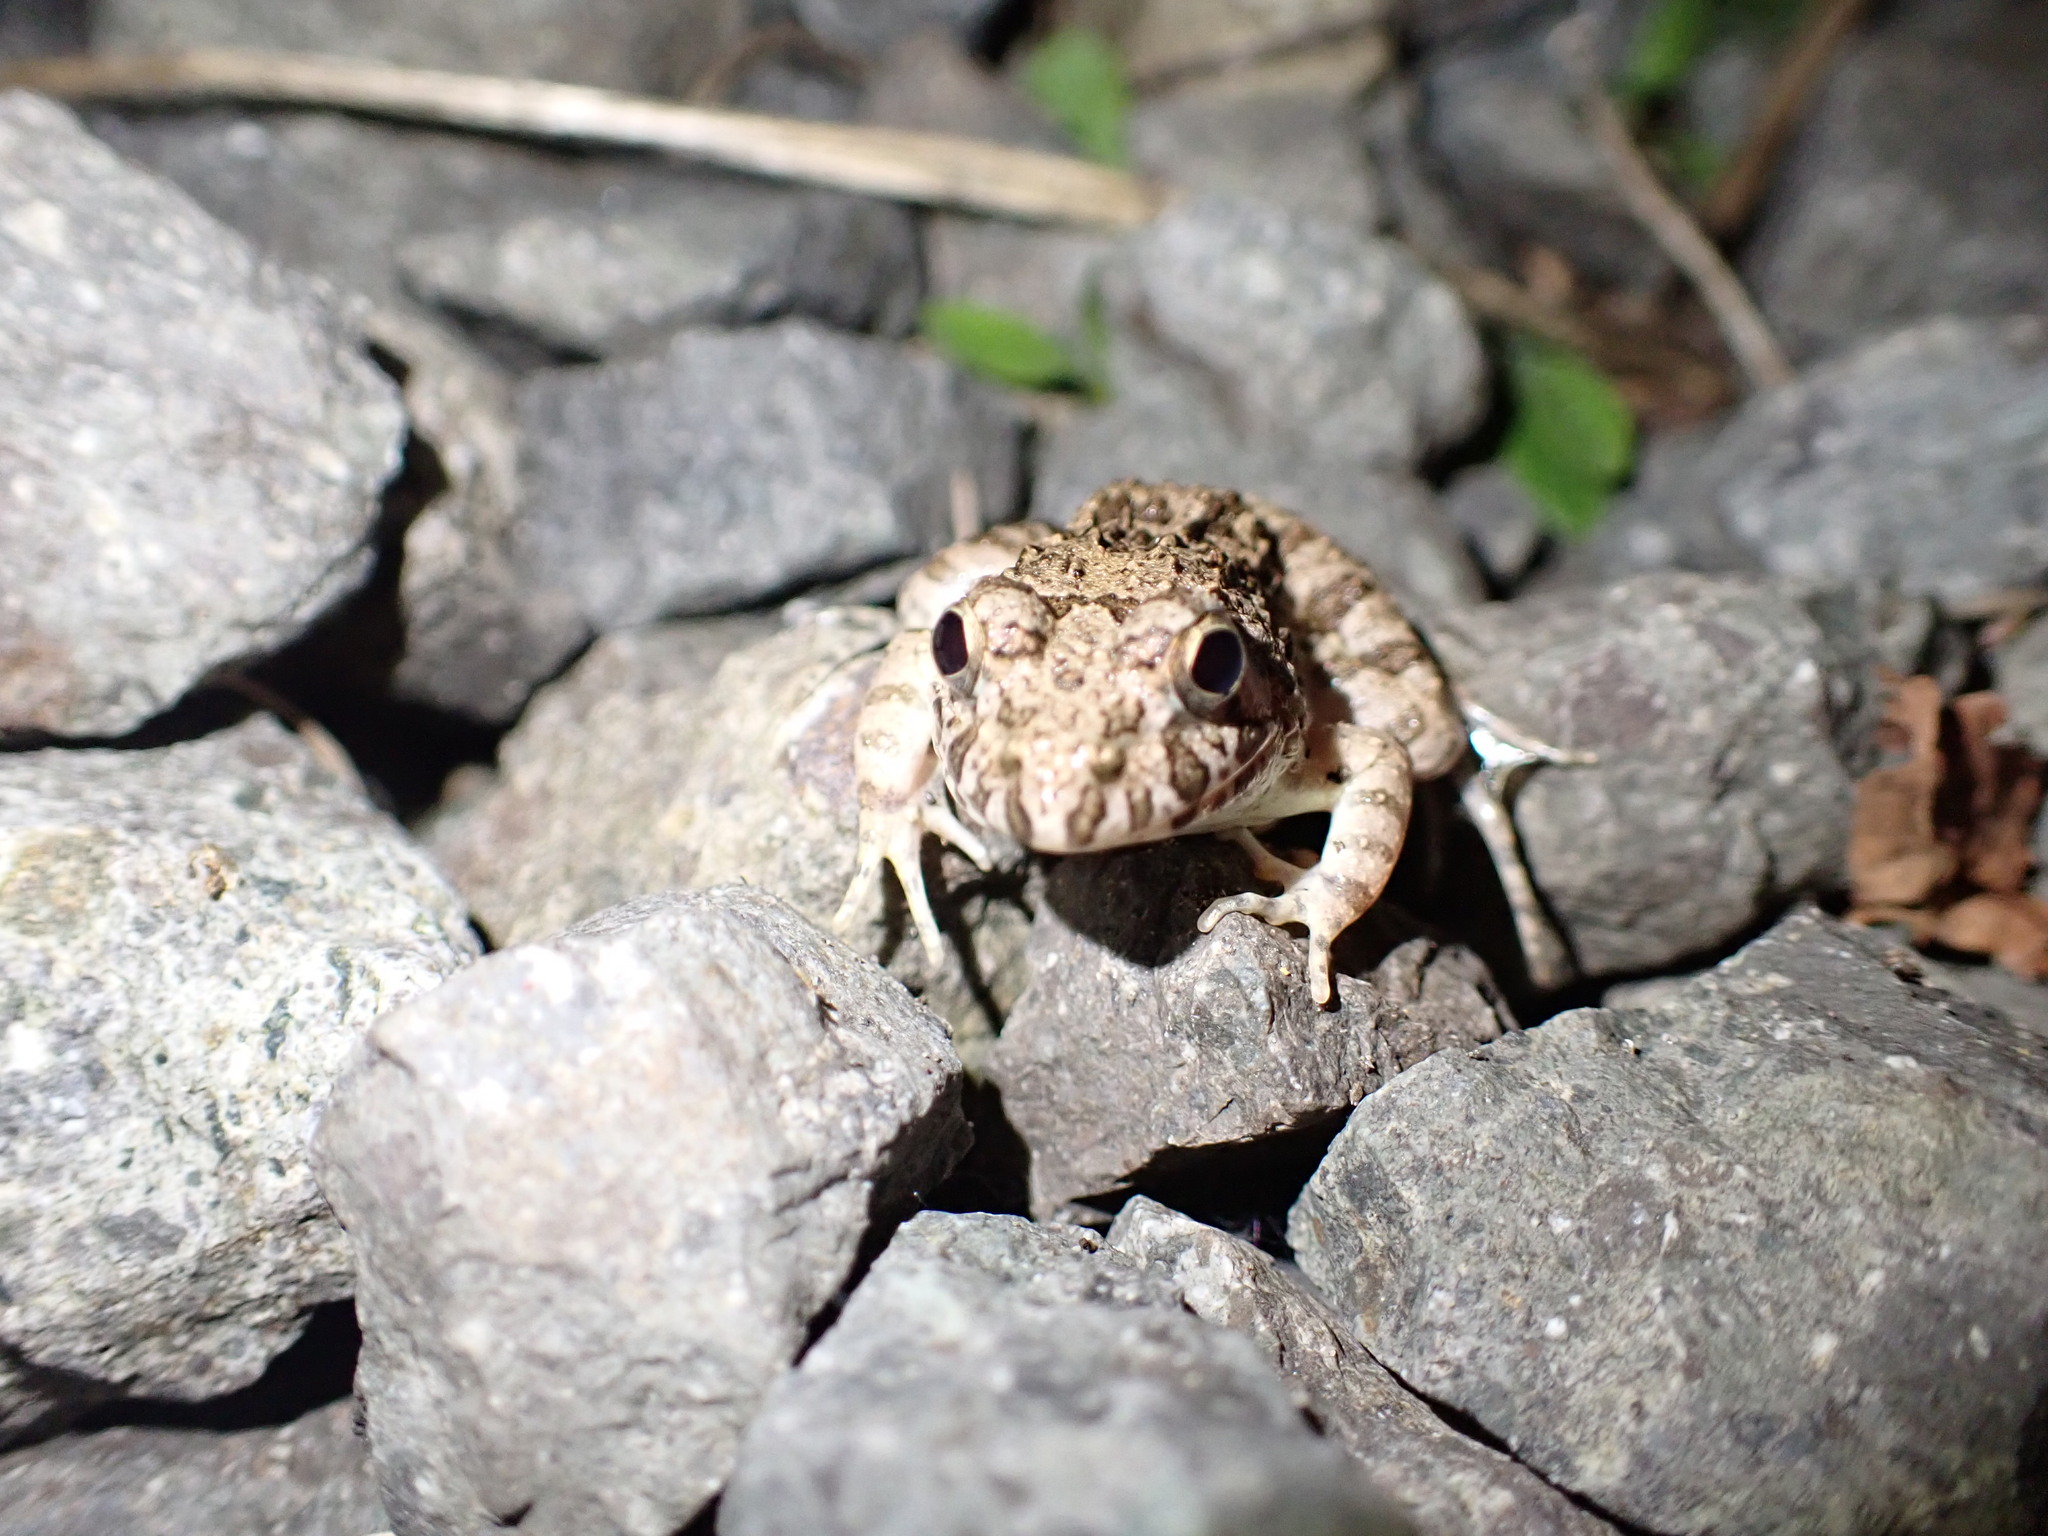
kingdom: Animalia
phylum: Chordata
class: Amphibia
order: Anura
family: Dicroglossidae
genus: Fejervarya
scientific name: Fejervarya kawamurai
